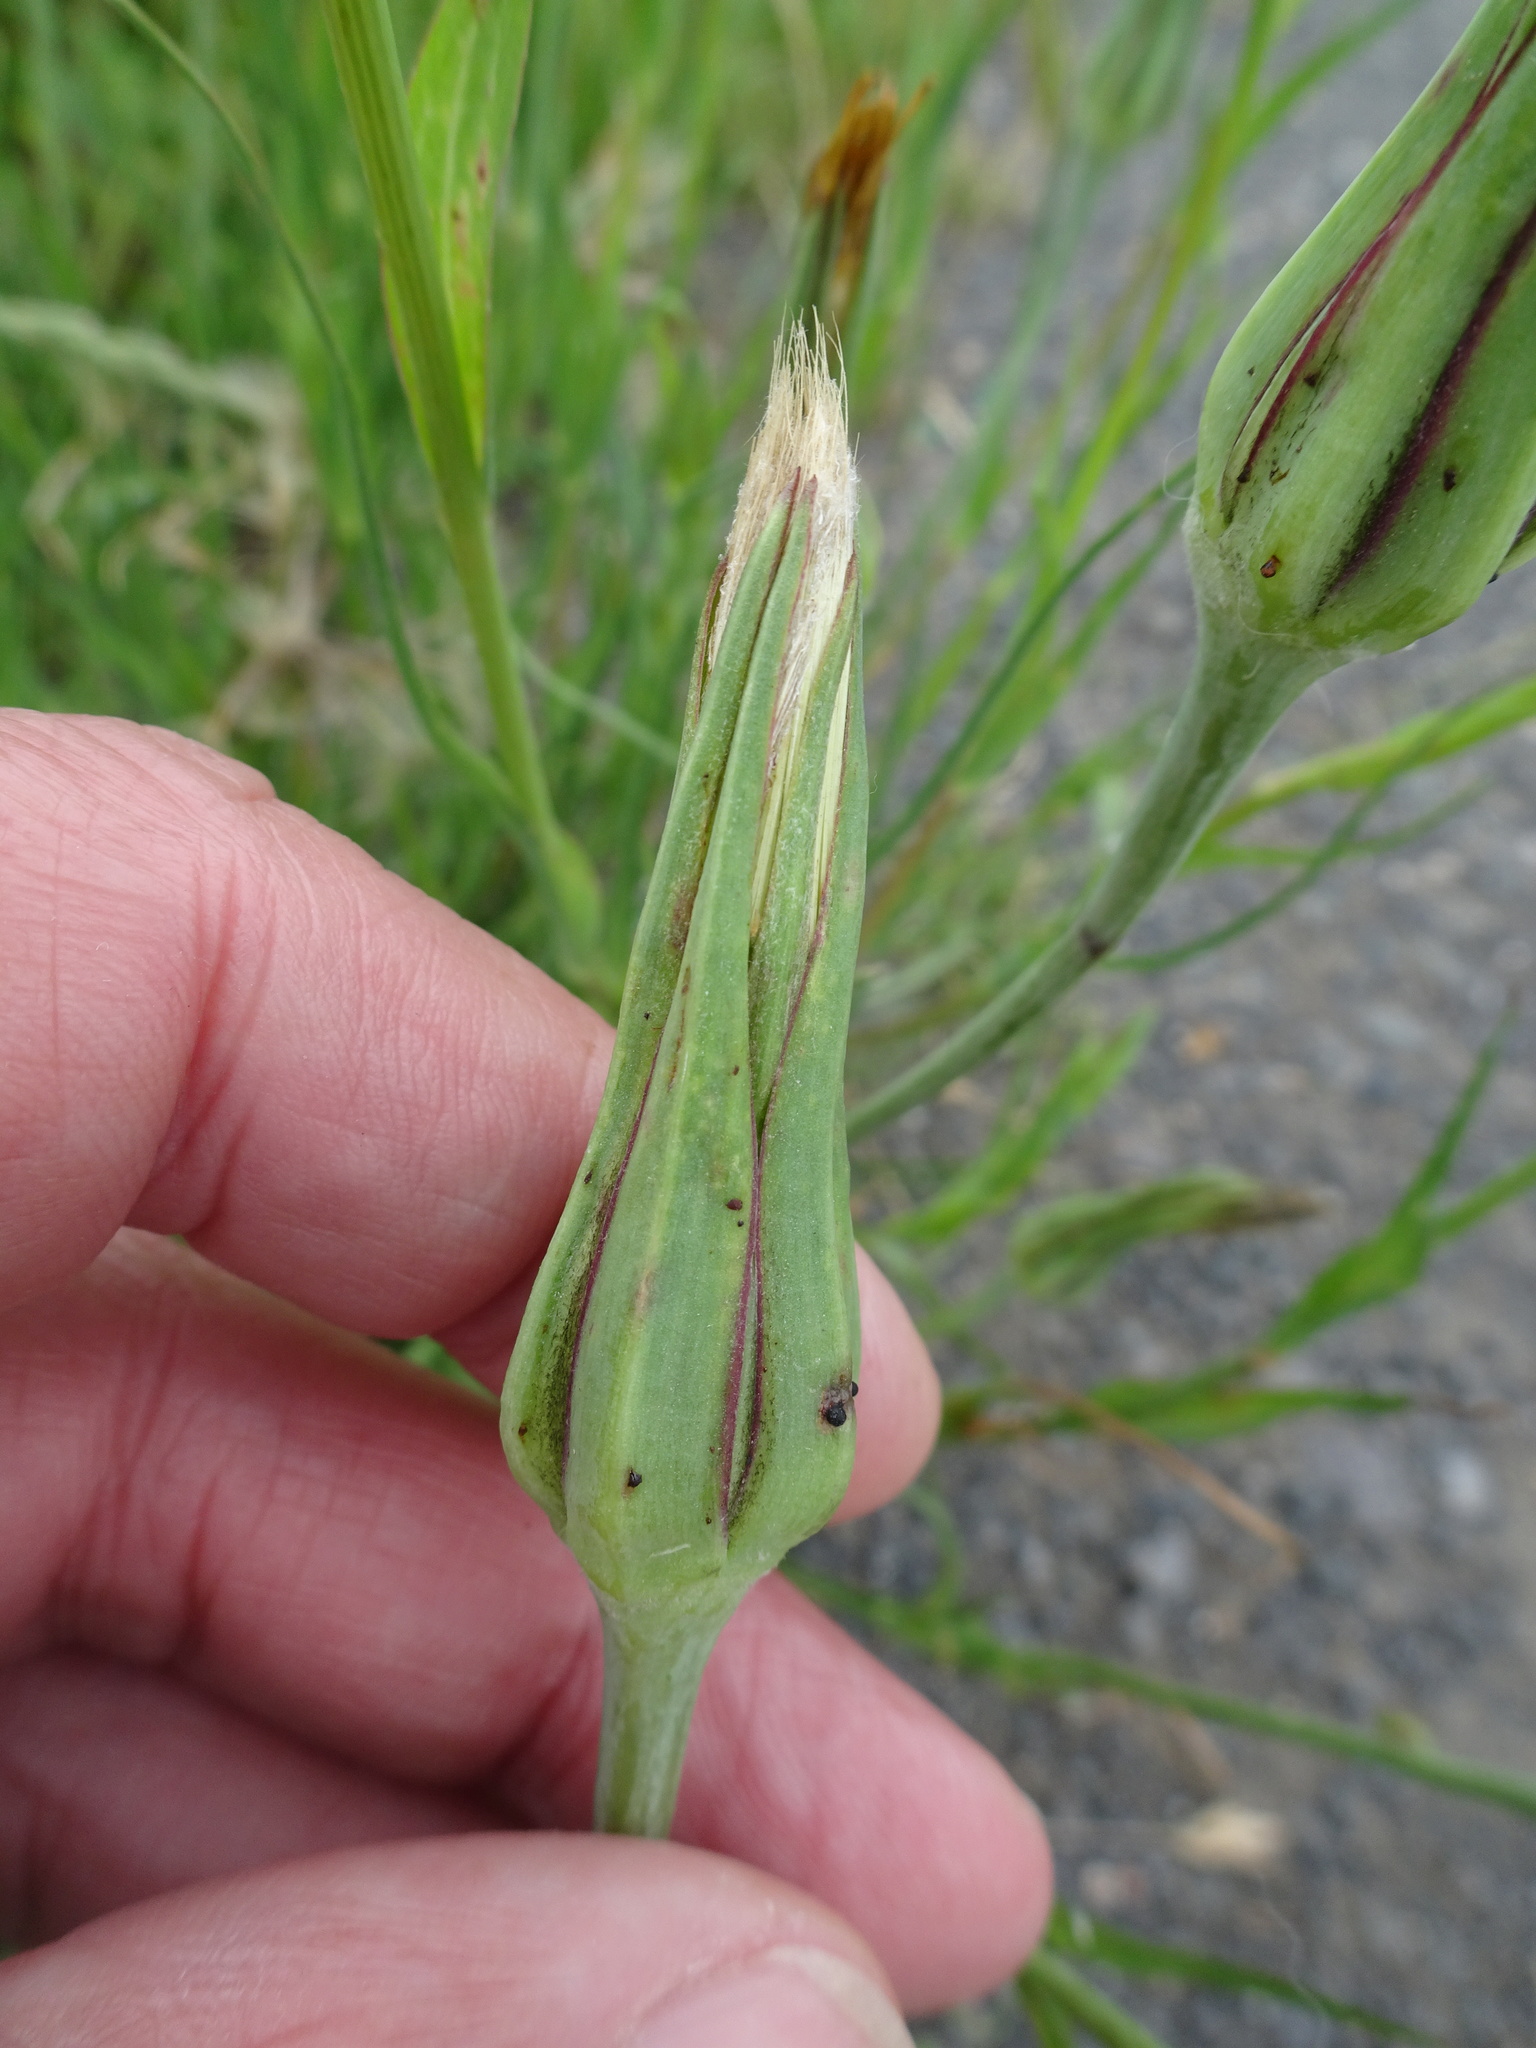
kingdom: Plantae
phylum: Tracheophyta
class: Magnoliopsida
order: Asterales
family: Asteraceae
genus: Tragopogon
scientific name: Tragopogon minor
